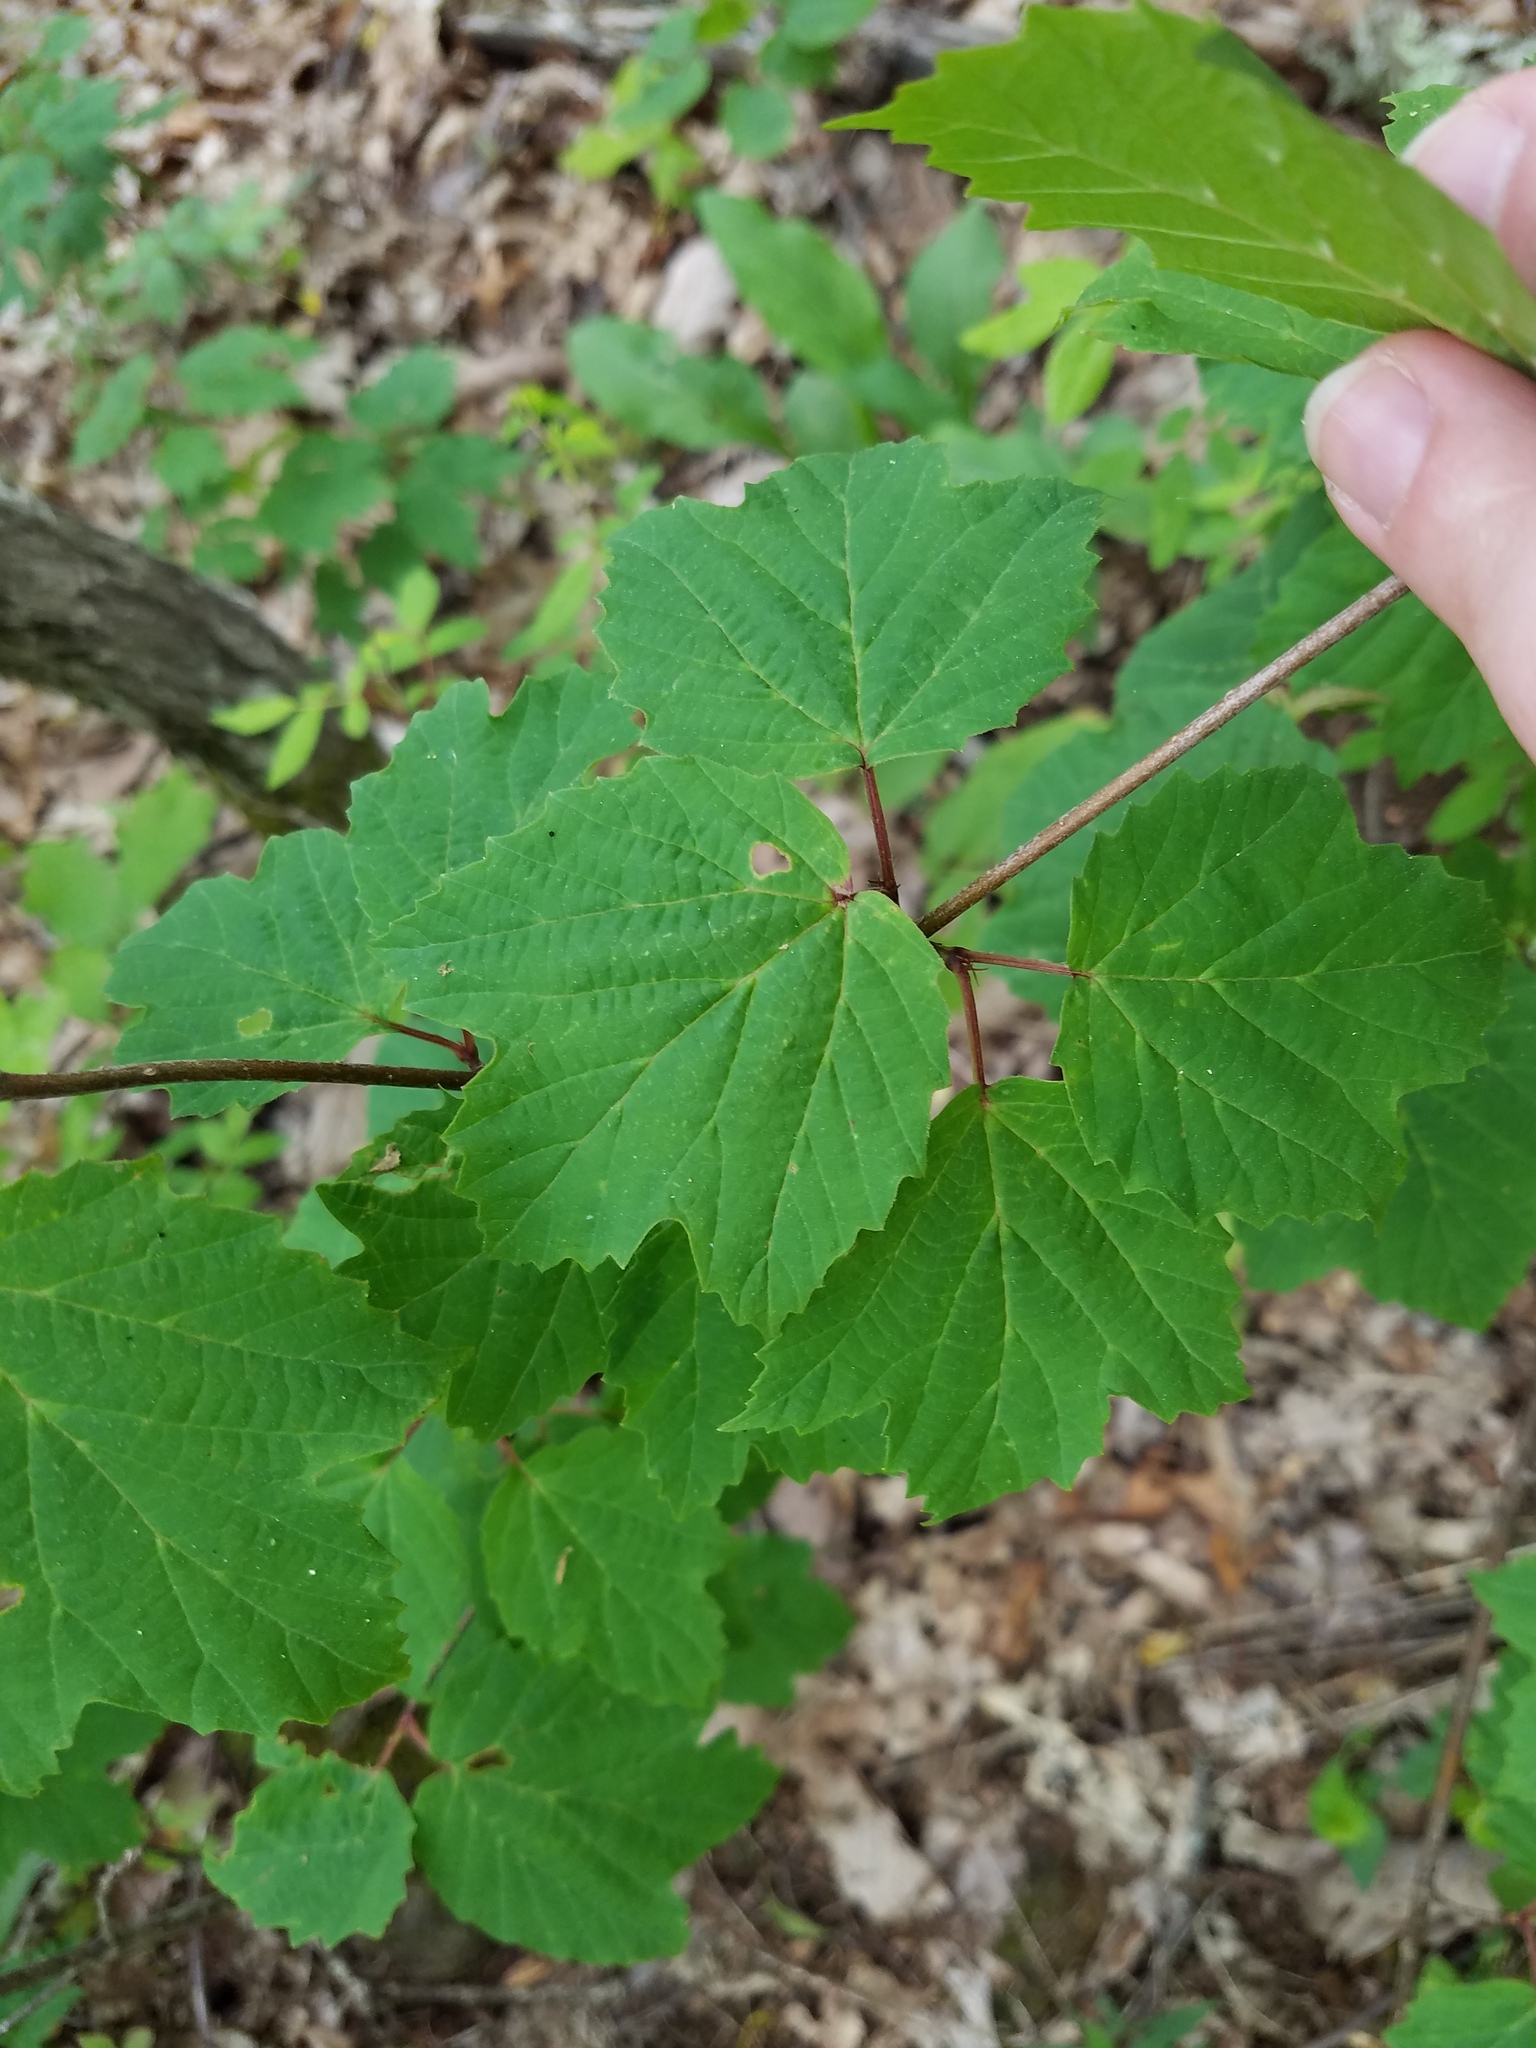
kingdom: Plantae
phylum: Tracheophyta
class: Magnoliopsida
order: Dipsacales
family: Viburnaceae
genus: Viburnum
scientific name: Viburnum acerifolium
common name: Dockmackie
